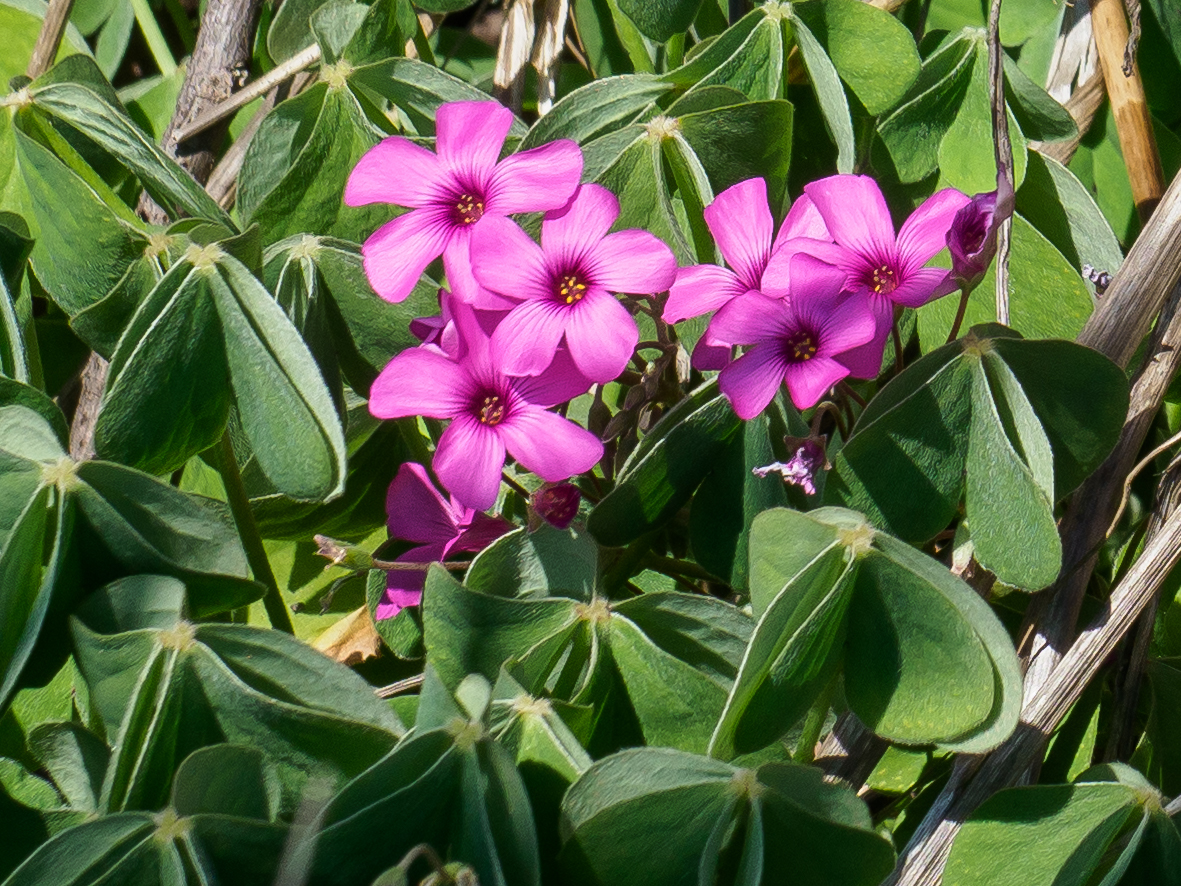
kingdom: Plantae
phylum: Tracheophyta
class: Magnoliopsida
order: Oxalidales
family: Oxalidaceae
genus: Oxalis
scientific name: Oxalis articulata
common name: Pink-sorrel
